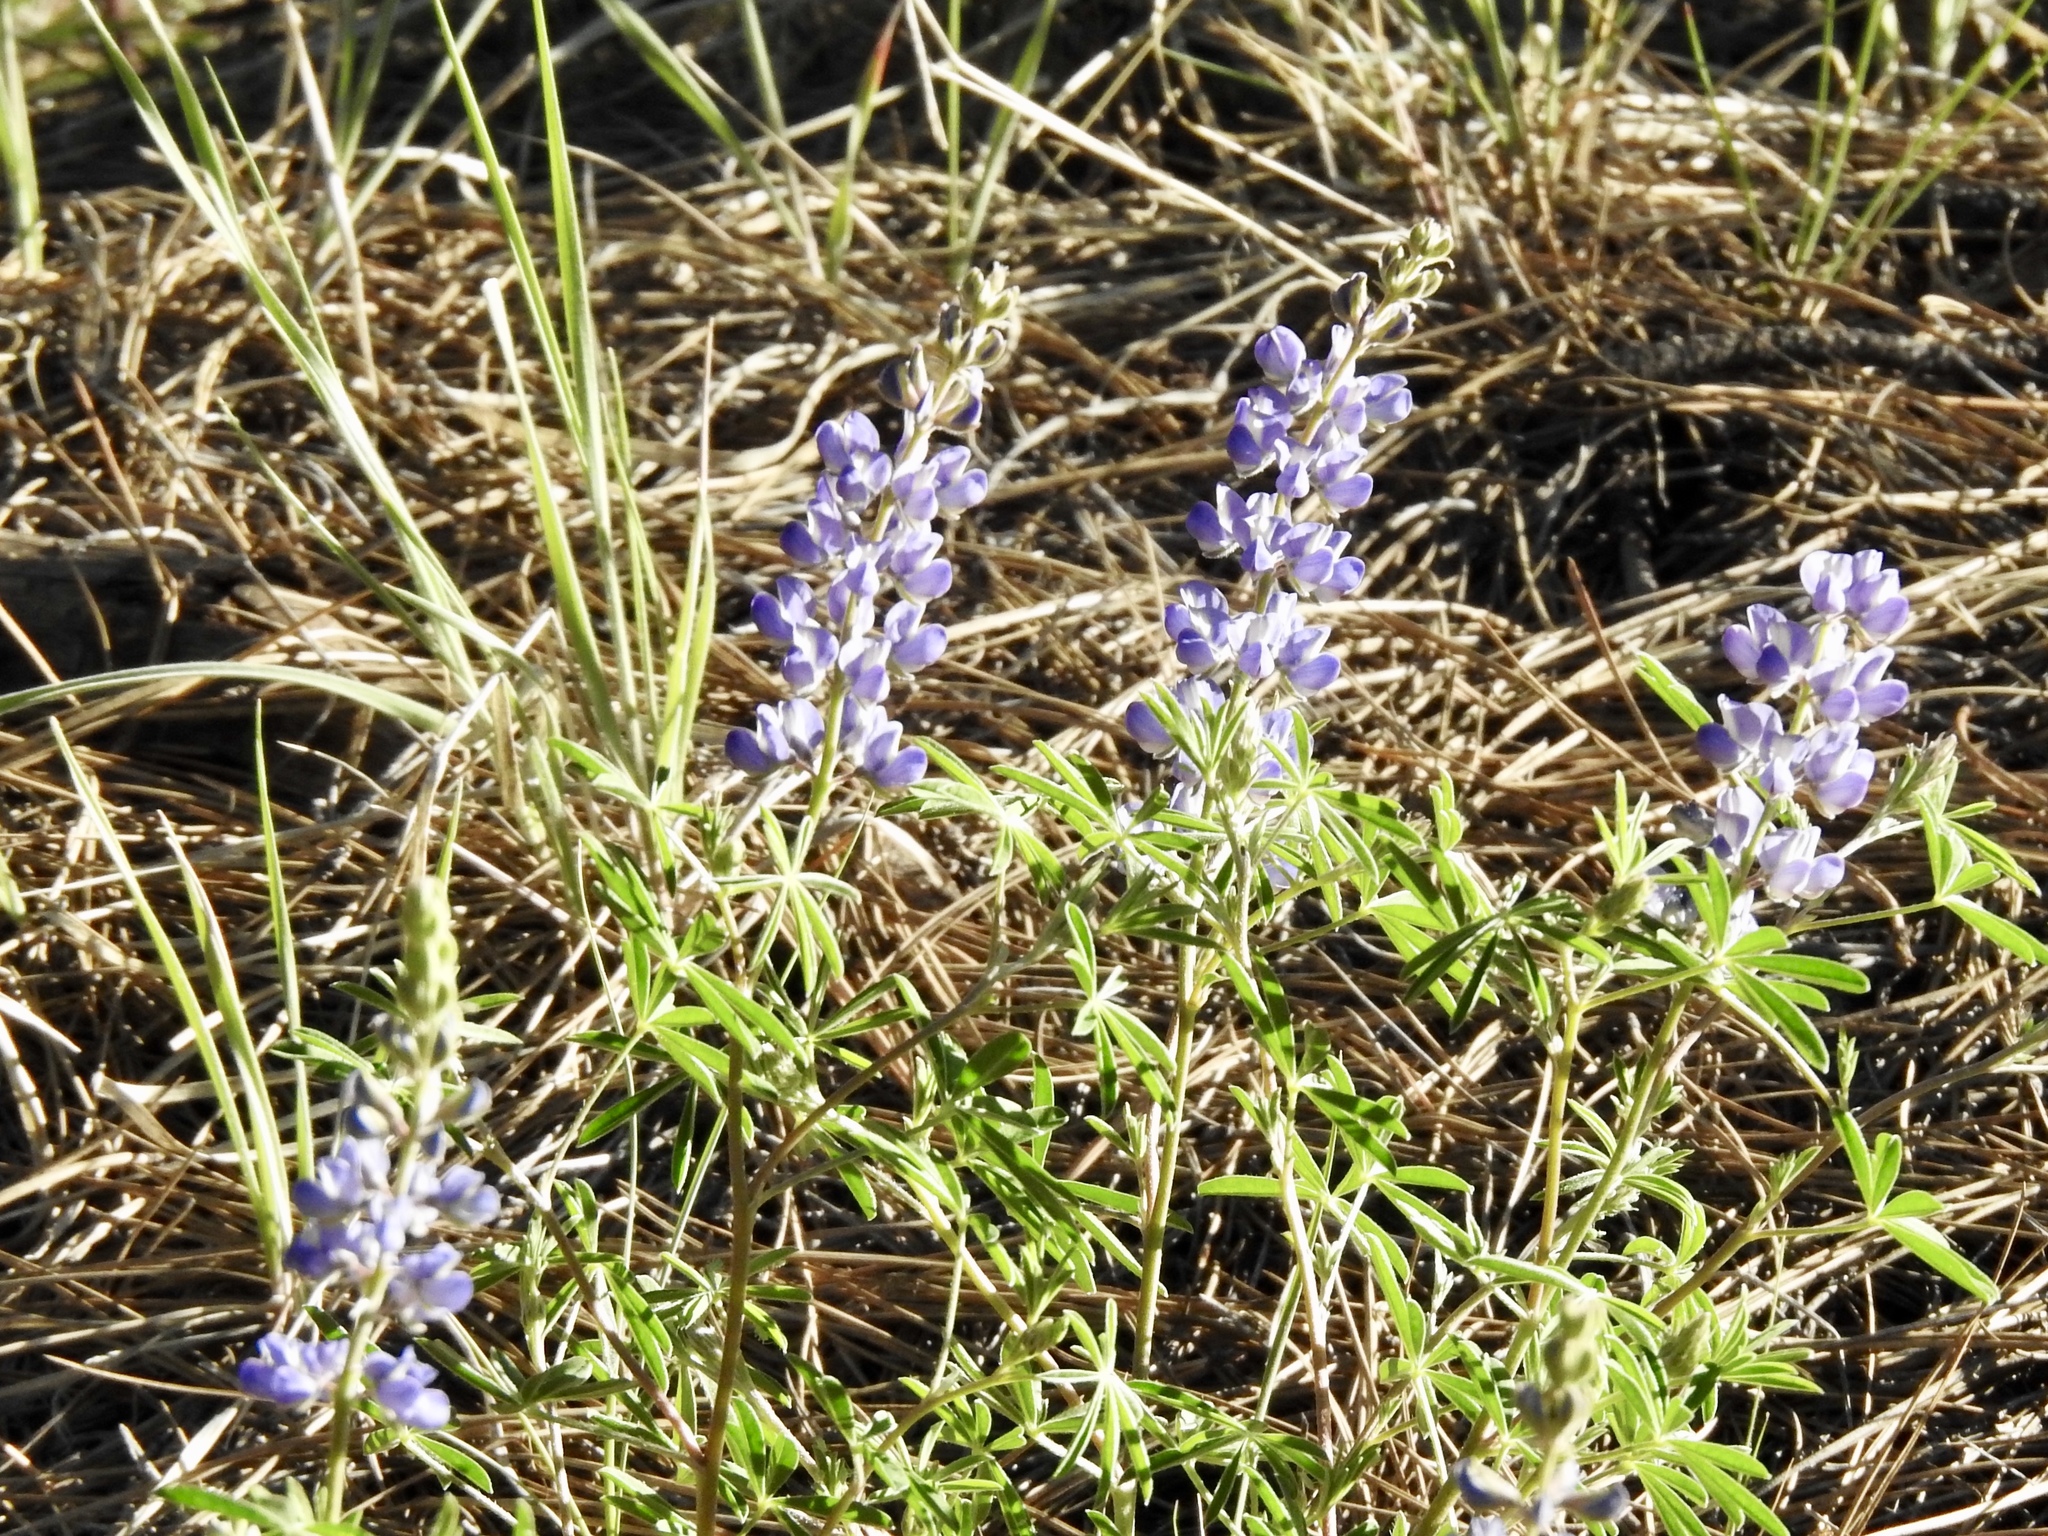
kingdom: Plantae
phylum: Tracheophyta
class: Magnoliopsida
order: Fabales
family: Fabaceae
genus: Lupinus
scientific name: Lupinus argenteus
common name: Silvery lupine
